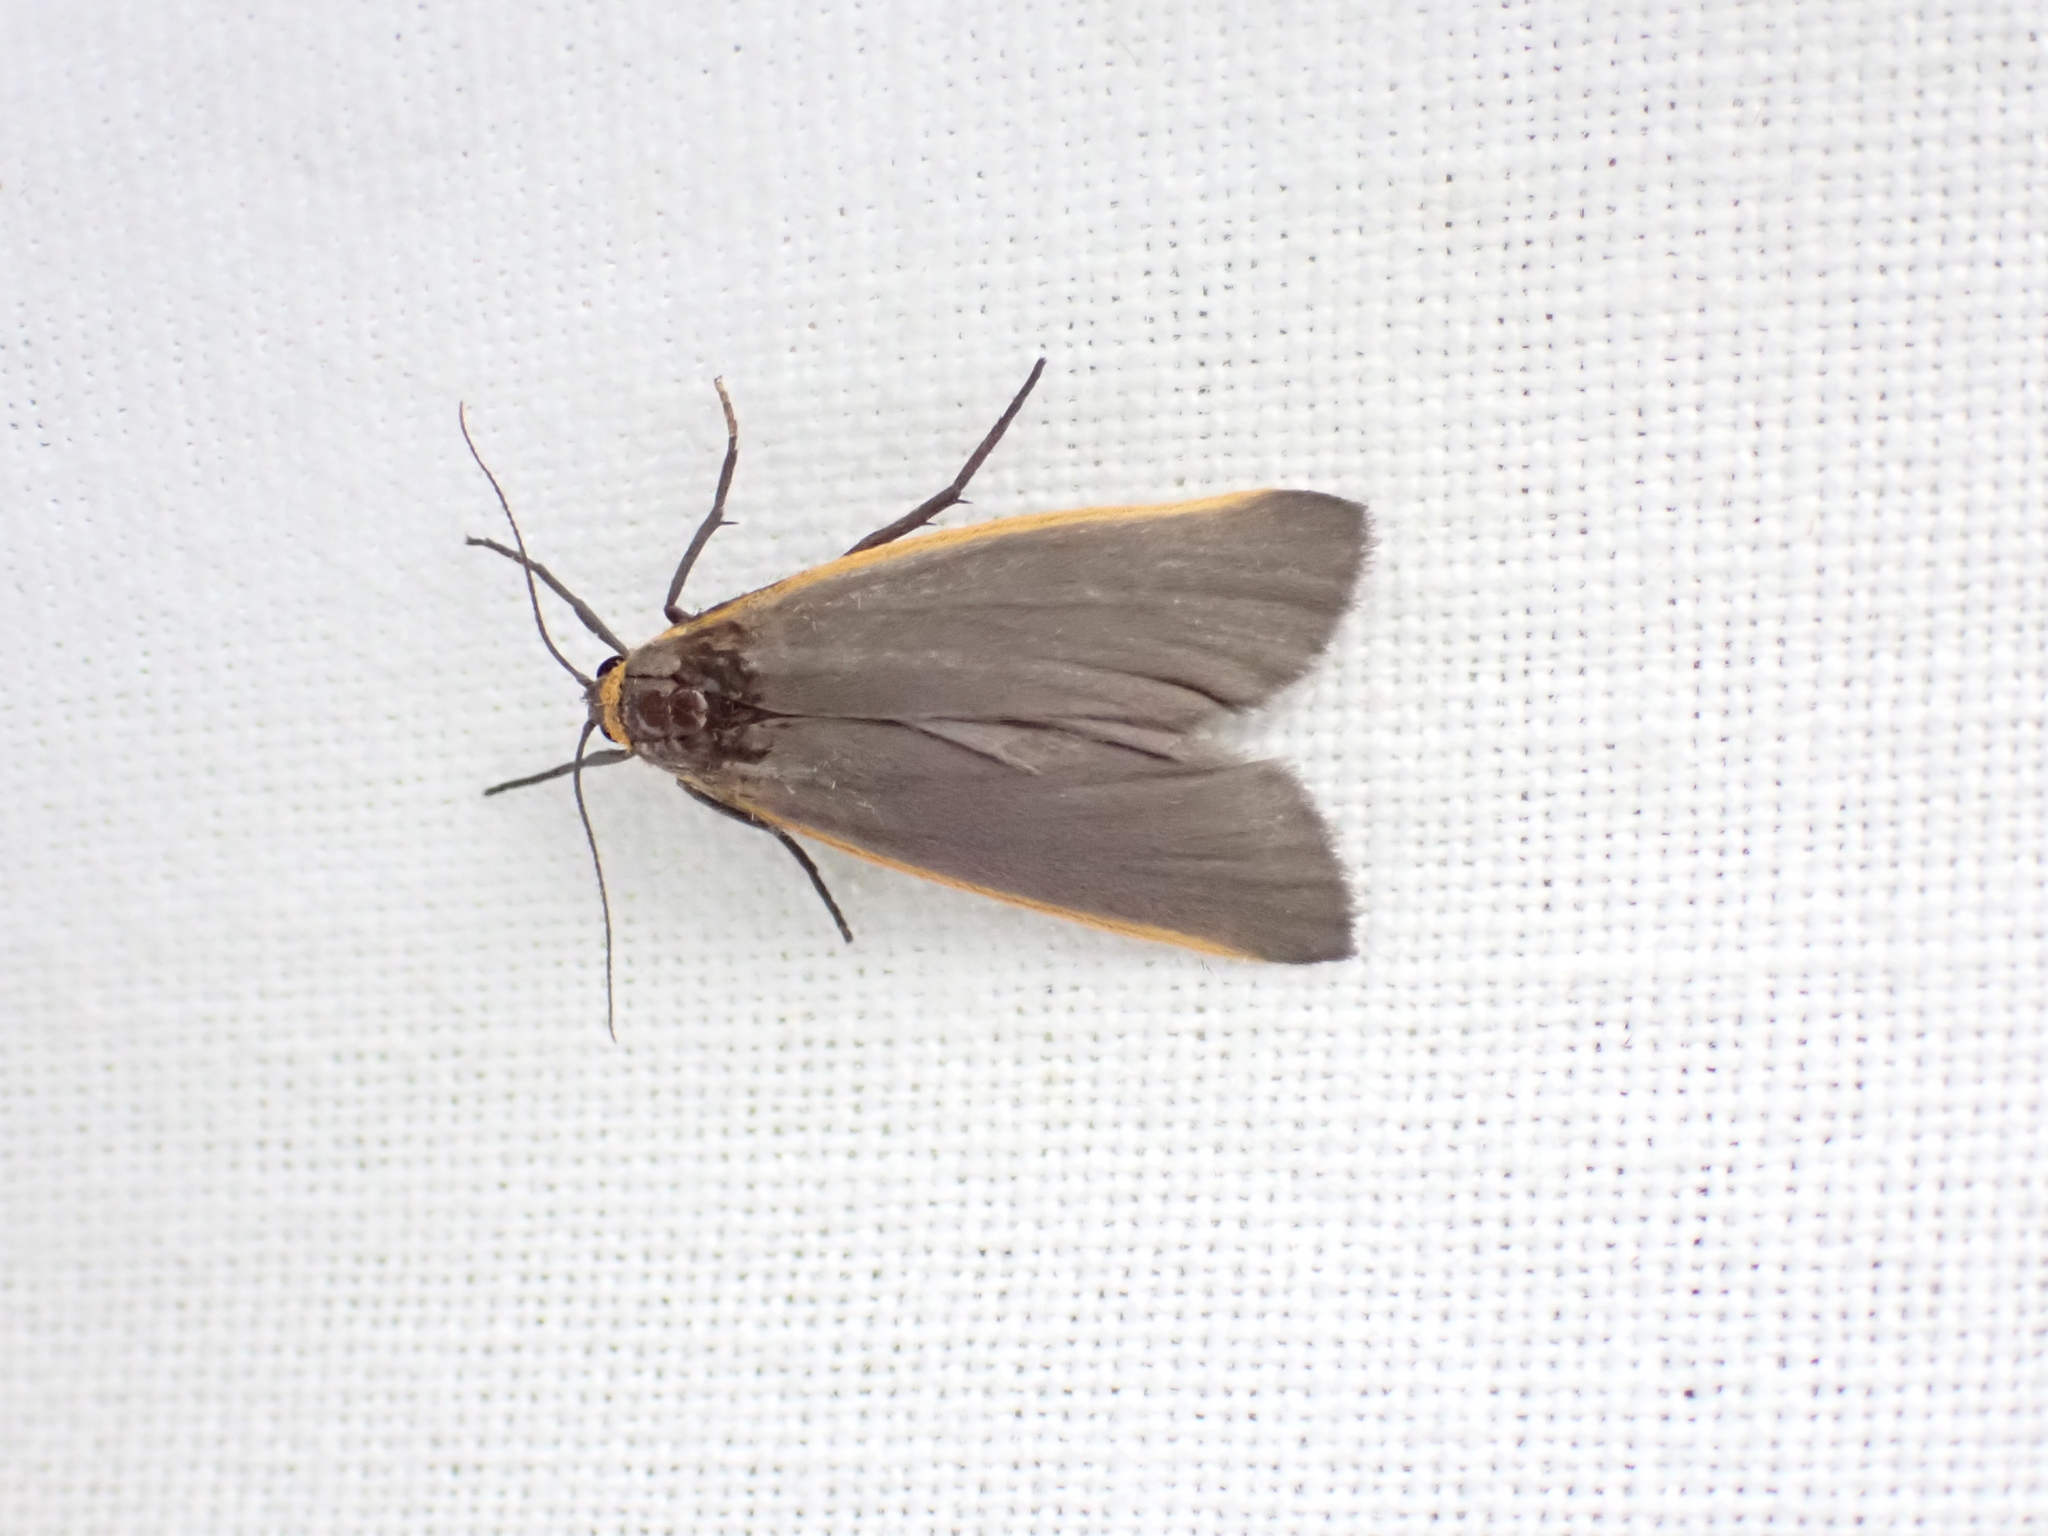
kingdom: Animalia
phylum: Arthropoda
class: Insecta
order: Lepidoptera
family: Erebidae
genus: Manulea
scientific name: Manulea bicolor
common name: Bicolored moth
